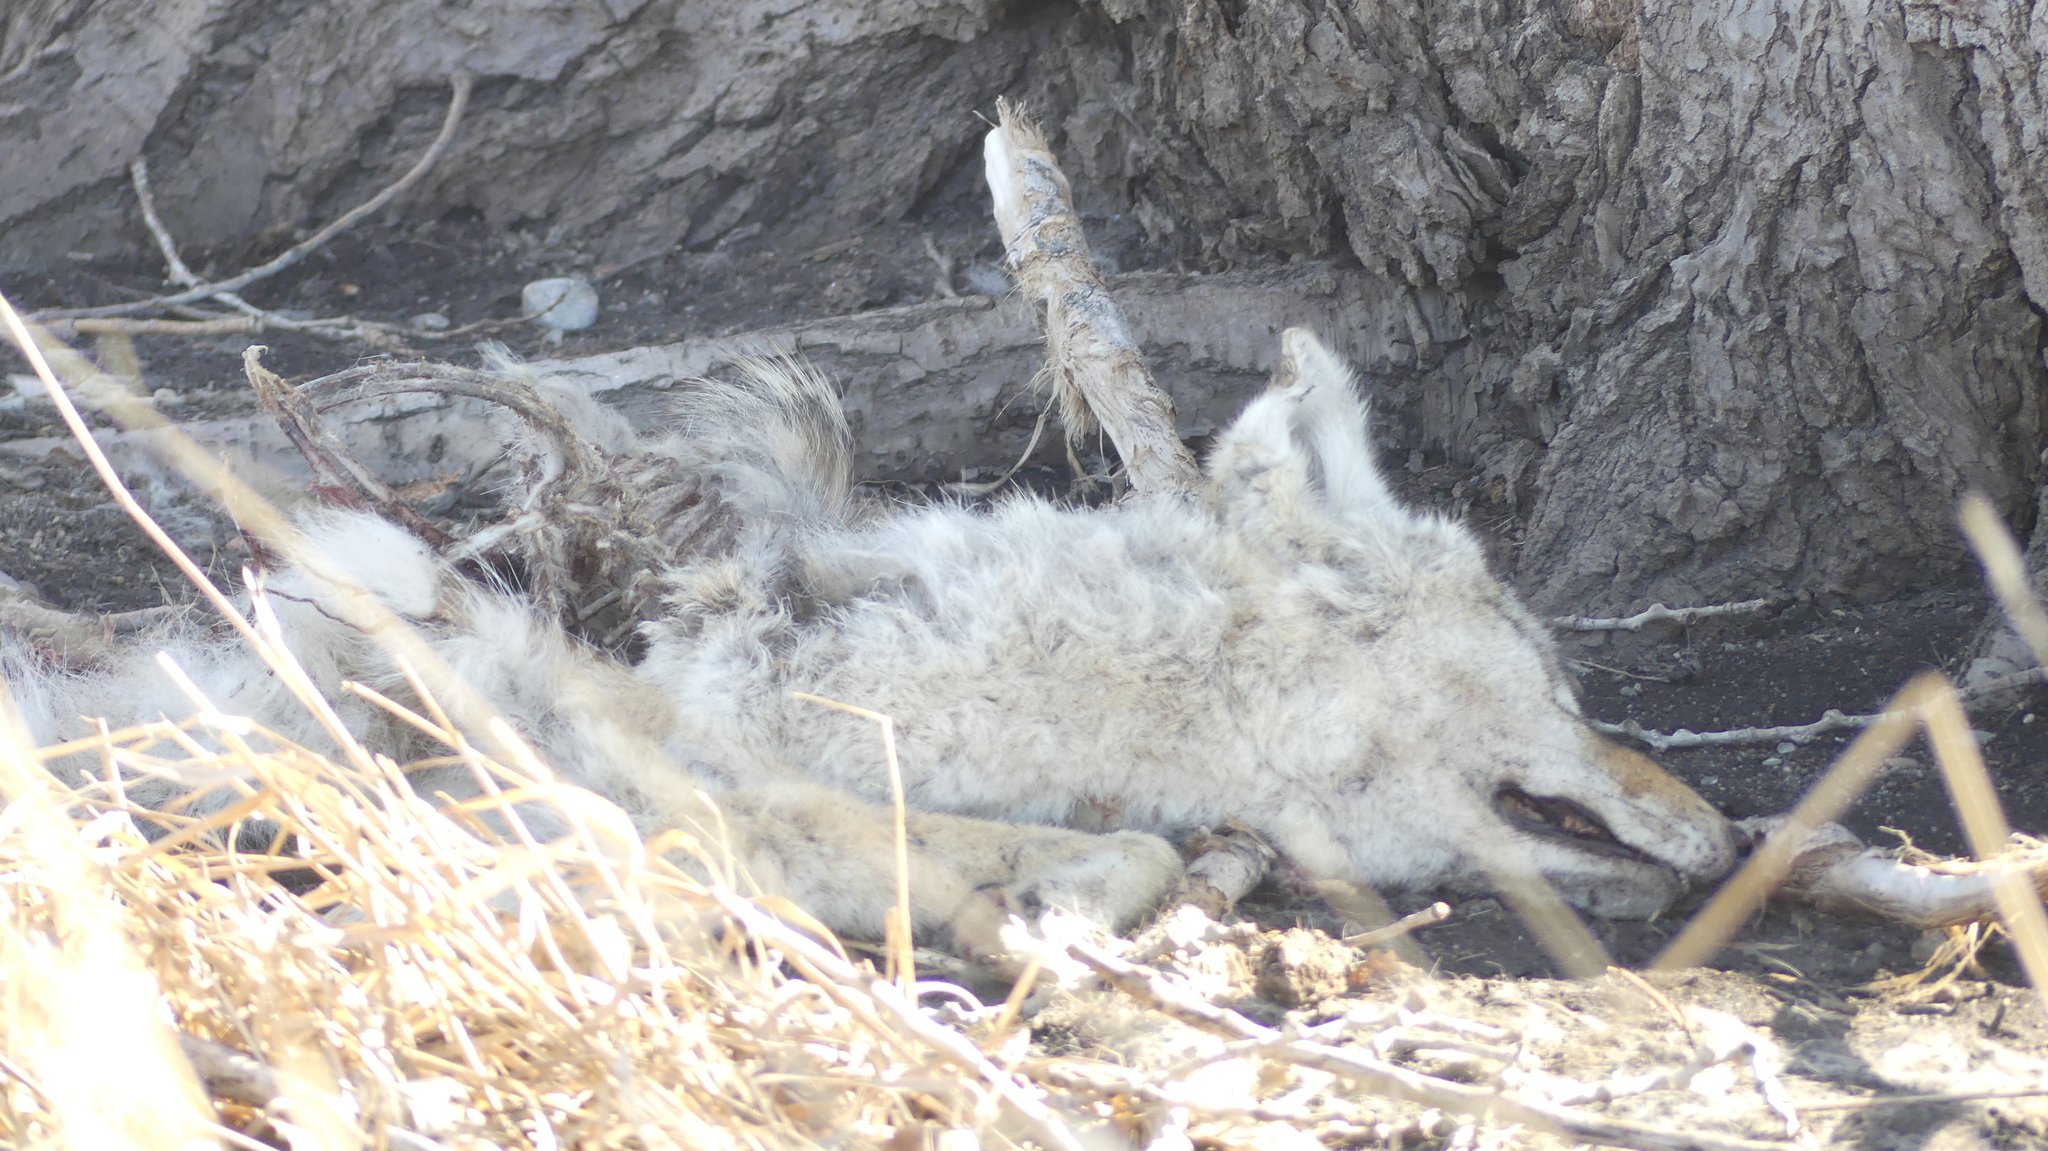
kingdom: Animalia
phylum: Chordata
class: Mammalia
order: Carnivora
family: Canidae
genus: Canis
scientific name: Canis latrans
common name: Coyote
